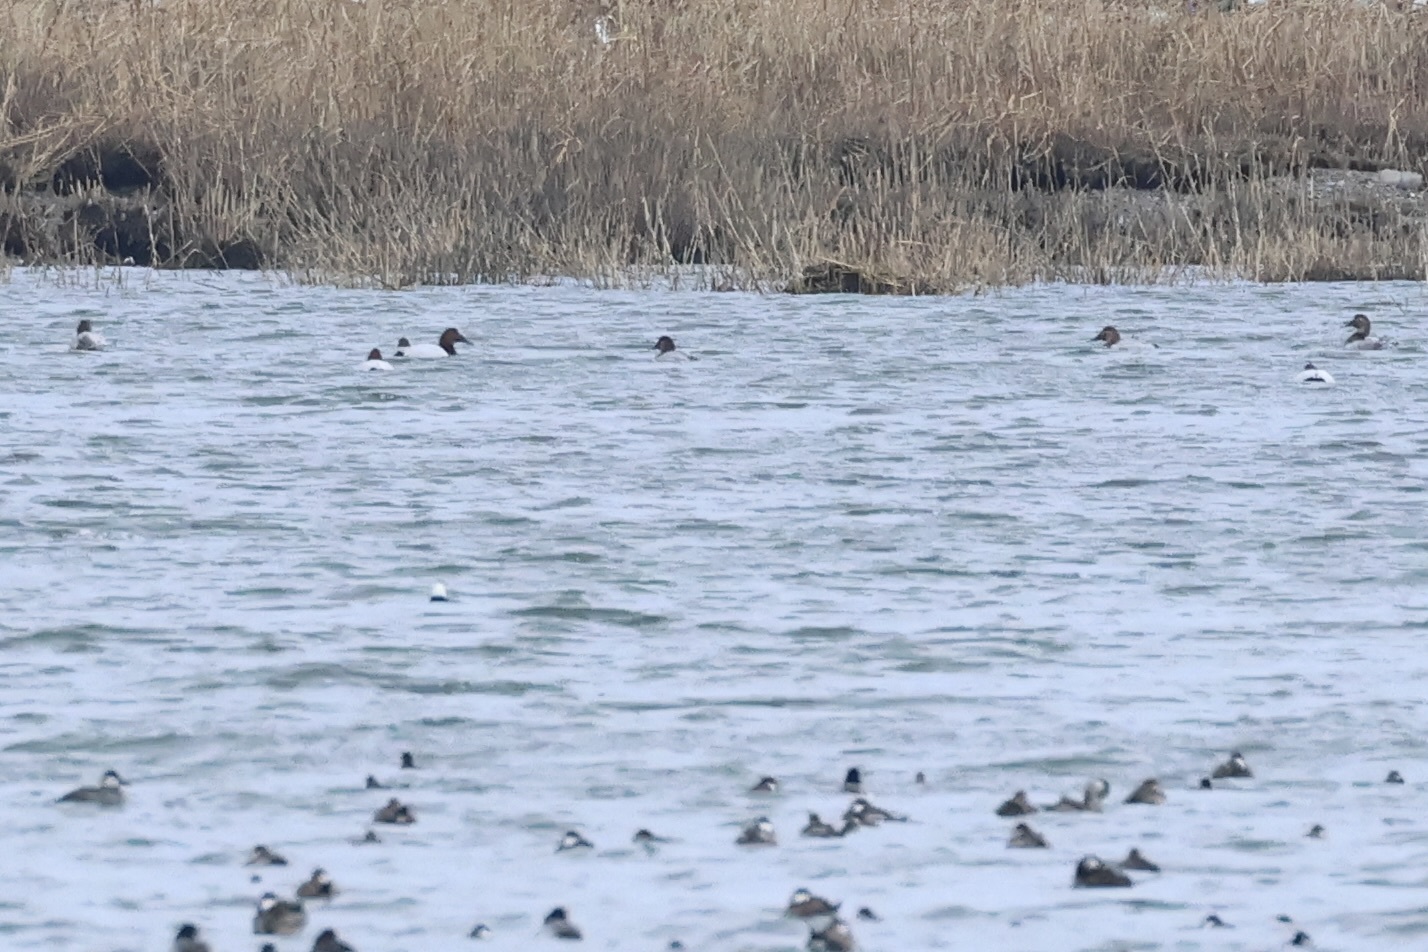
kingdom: Animalia
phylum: Chordata
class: Aves
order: Anseriformes
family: Anatidae
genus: Aythya
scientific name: Aythya valisineria
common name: Canvasback
